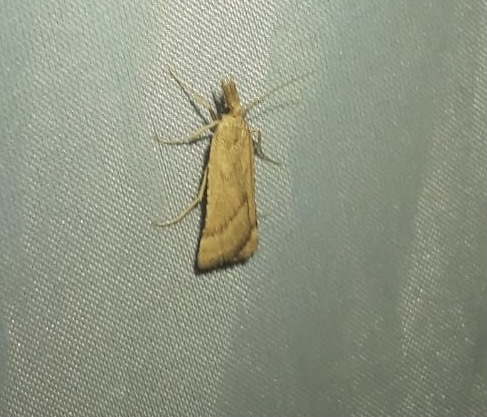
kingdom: Animalia
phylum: Arthropoda
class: Insecta
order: Lepidoptera
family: Pyralidae
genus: Synaphe
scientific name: Synaphe punctalis
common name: Long-legged tabby
